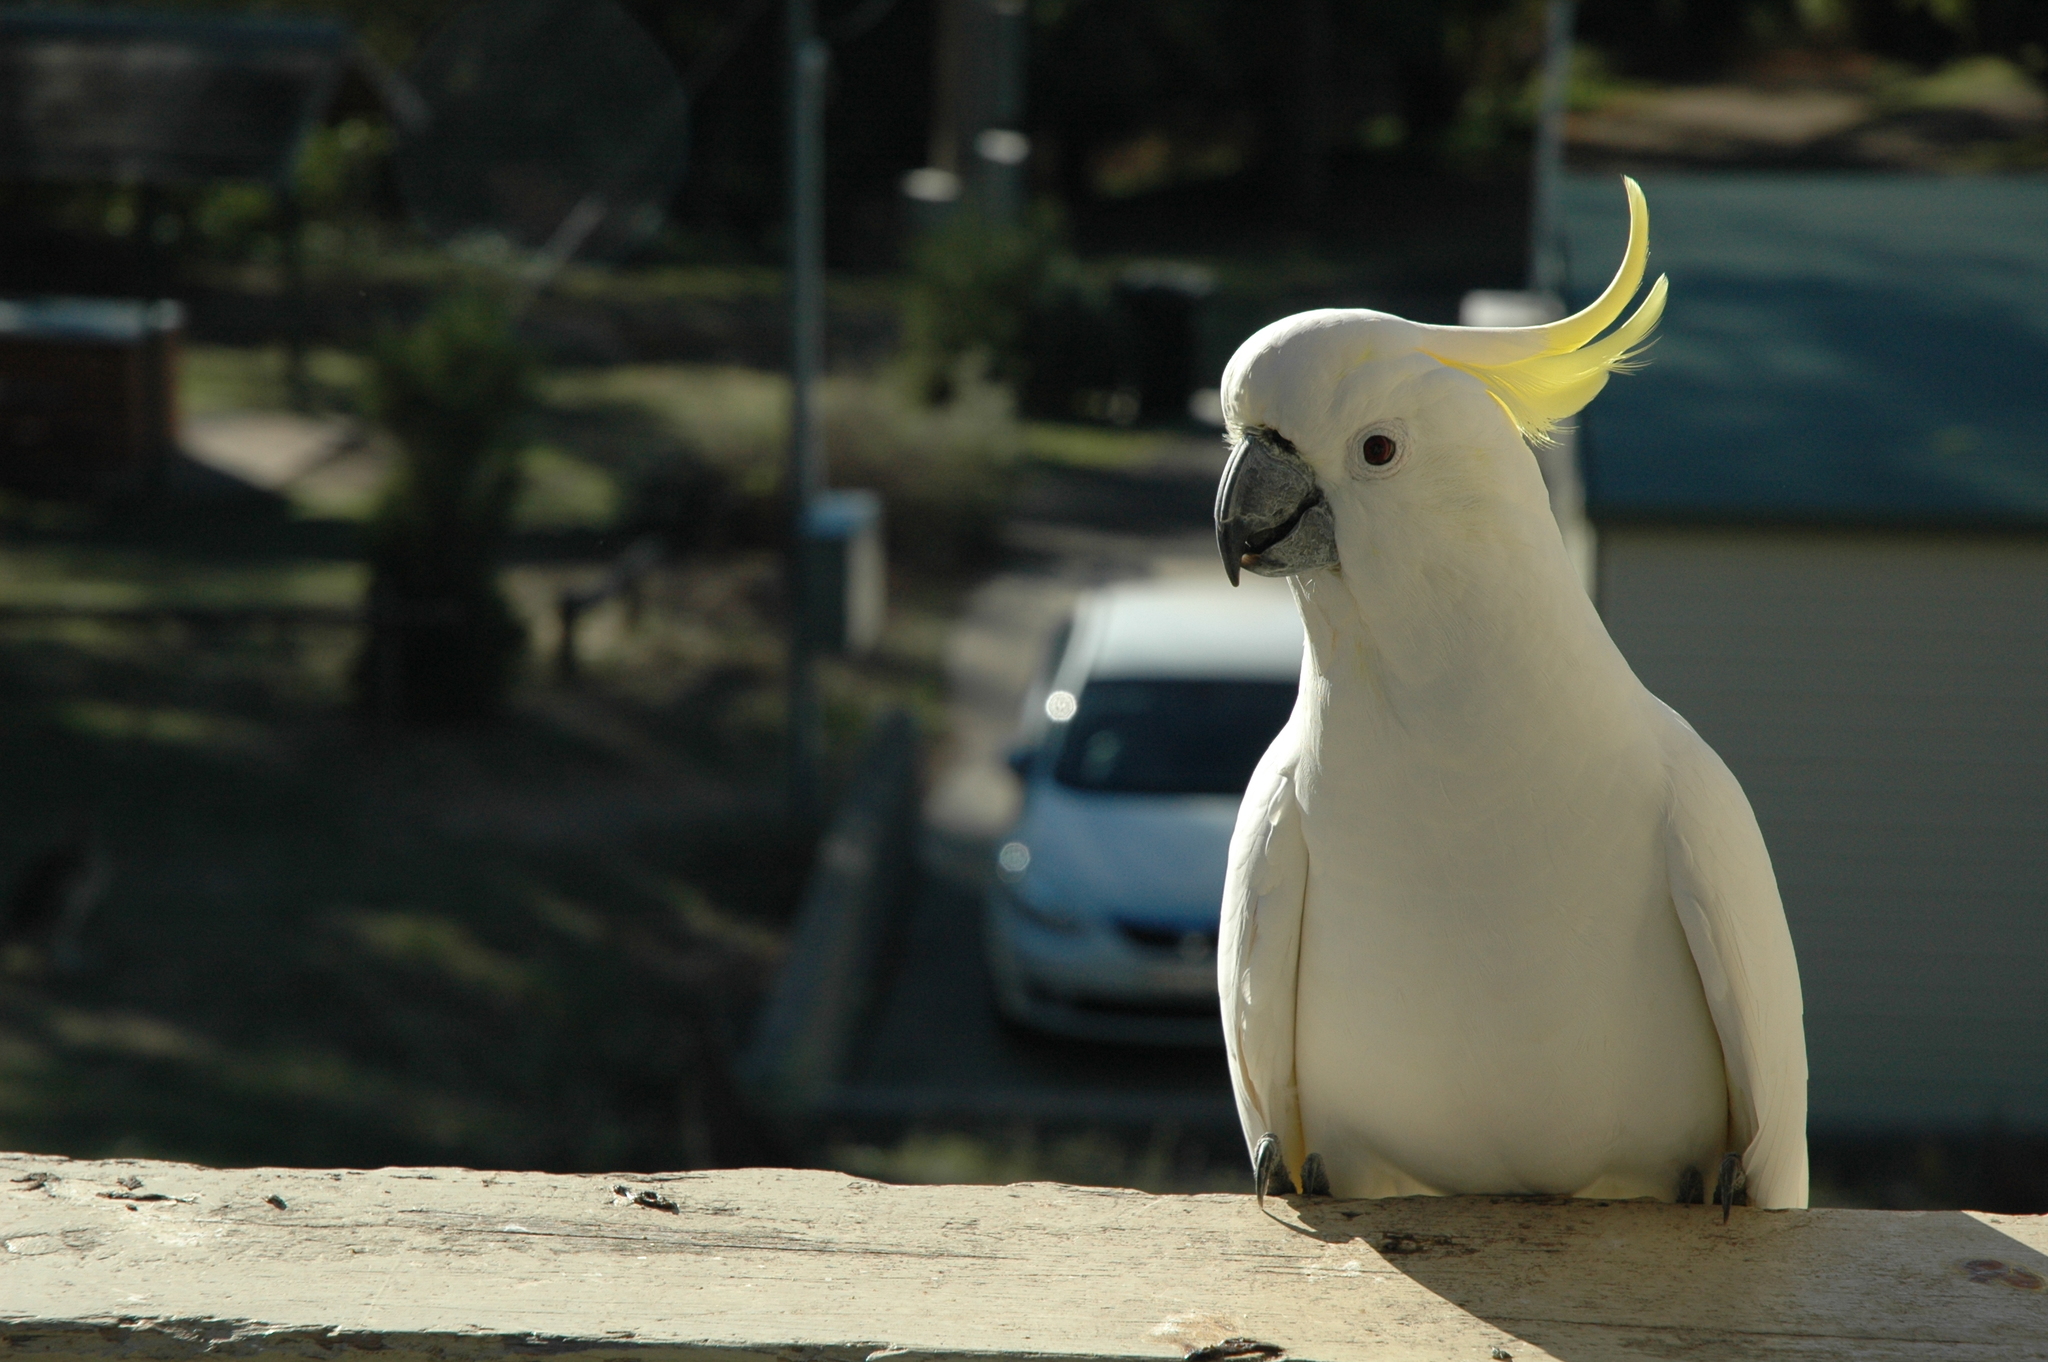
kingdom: Animalia
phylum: Chordata
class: Aves
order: Psittaciformes
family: Psittacidae
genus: Cacatua
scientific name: Cacatua galerita
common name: Sulphur-crested cockatoo
